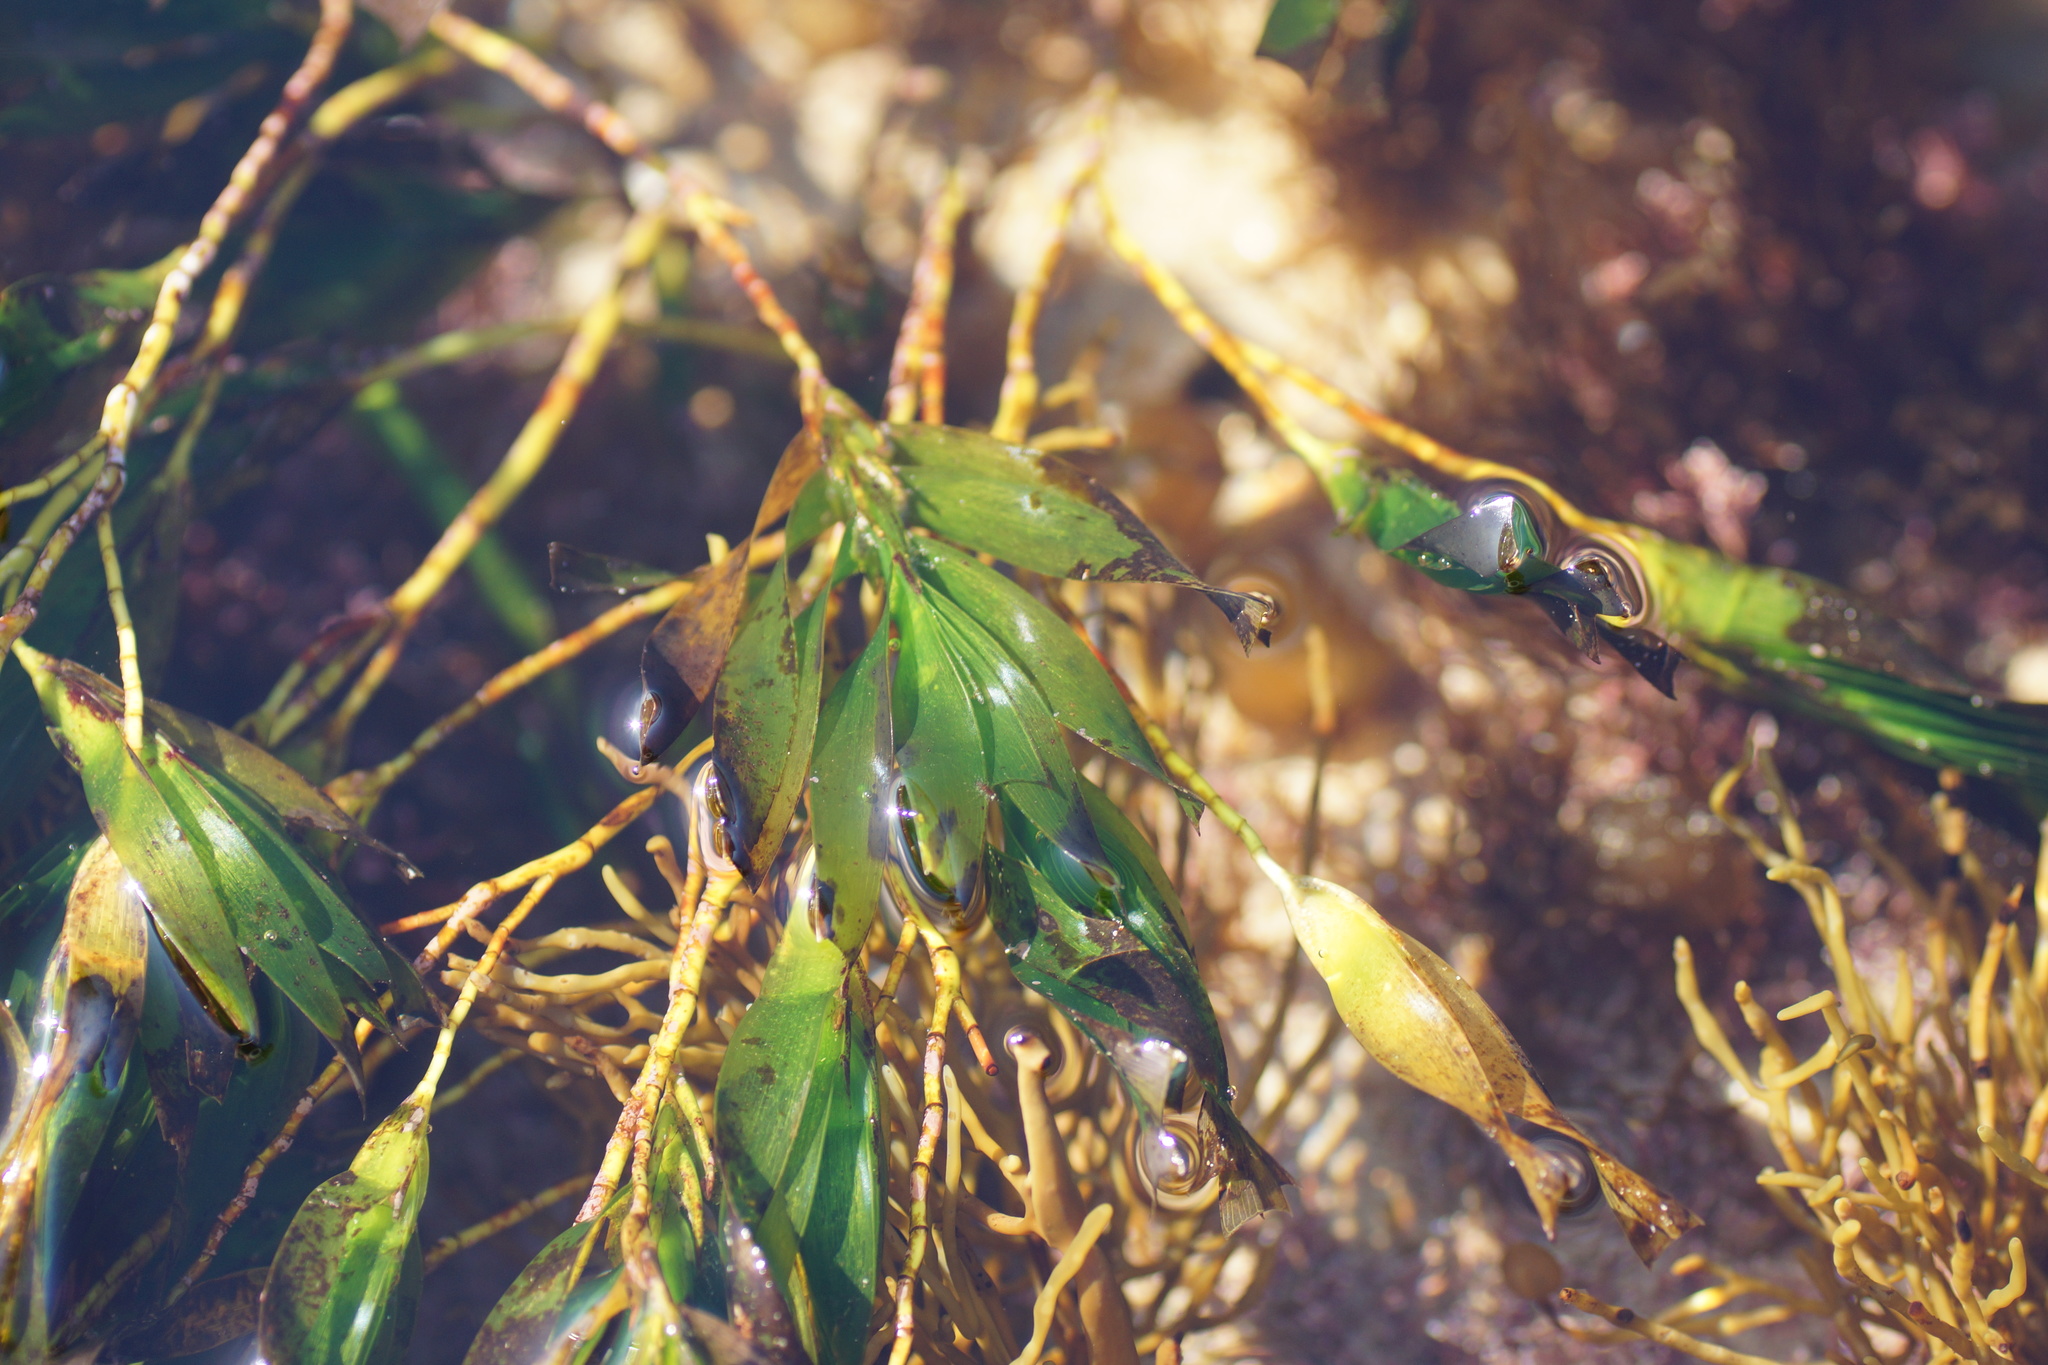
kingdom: Plantae
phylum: Tracheophyta
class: Liliopsida
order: Alismatales
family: Cymodoceaceae
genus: Amphibolis
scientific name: Amphibolis antarctica
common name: Species code: aa
